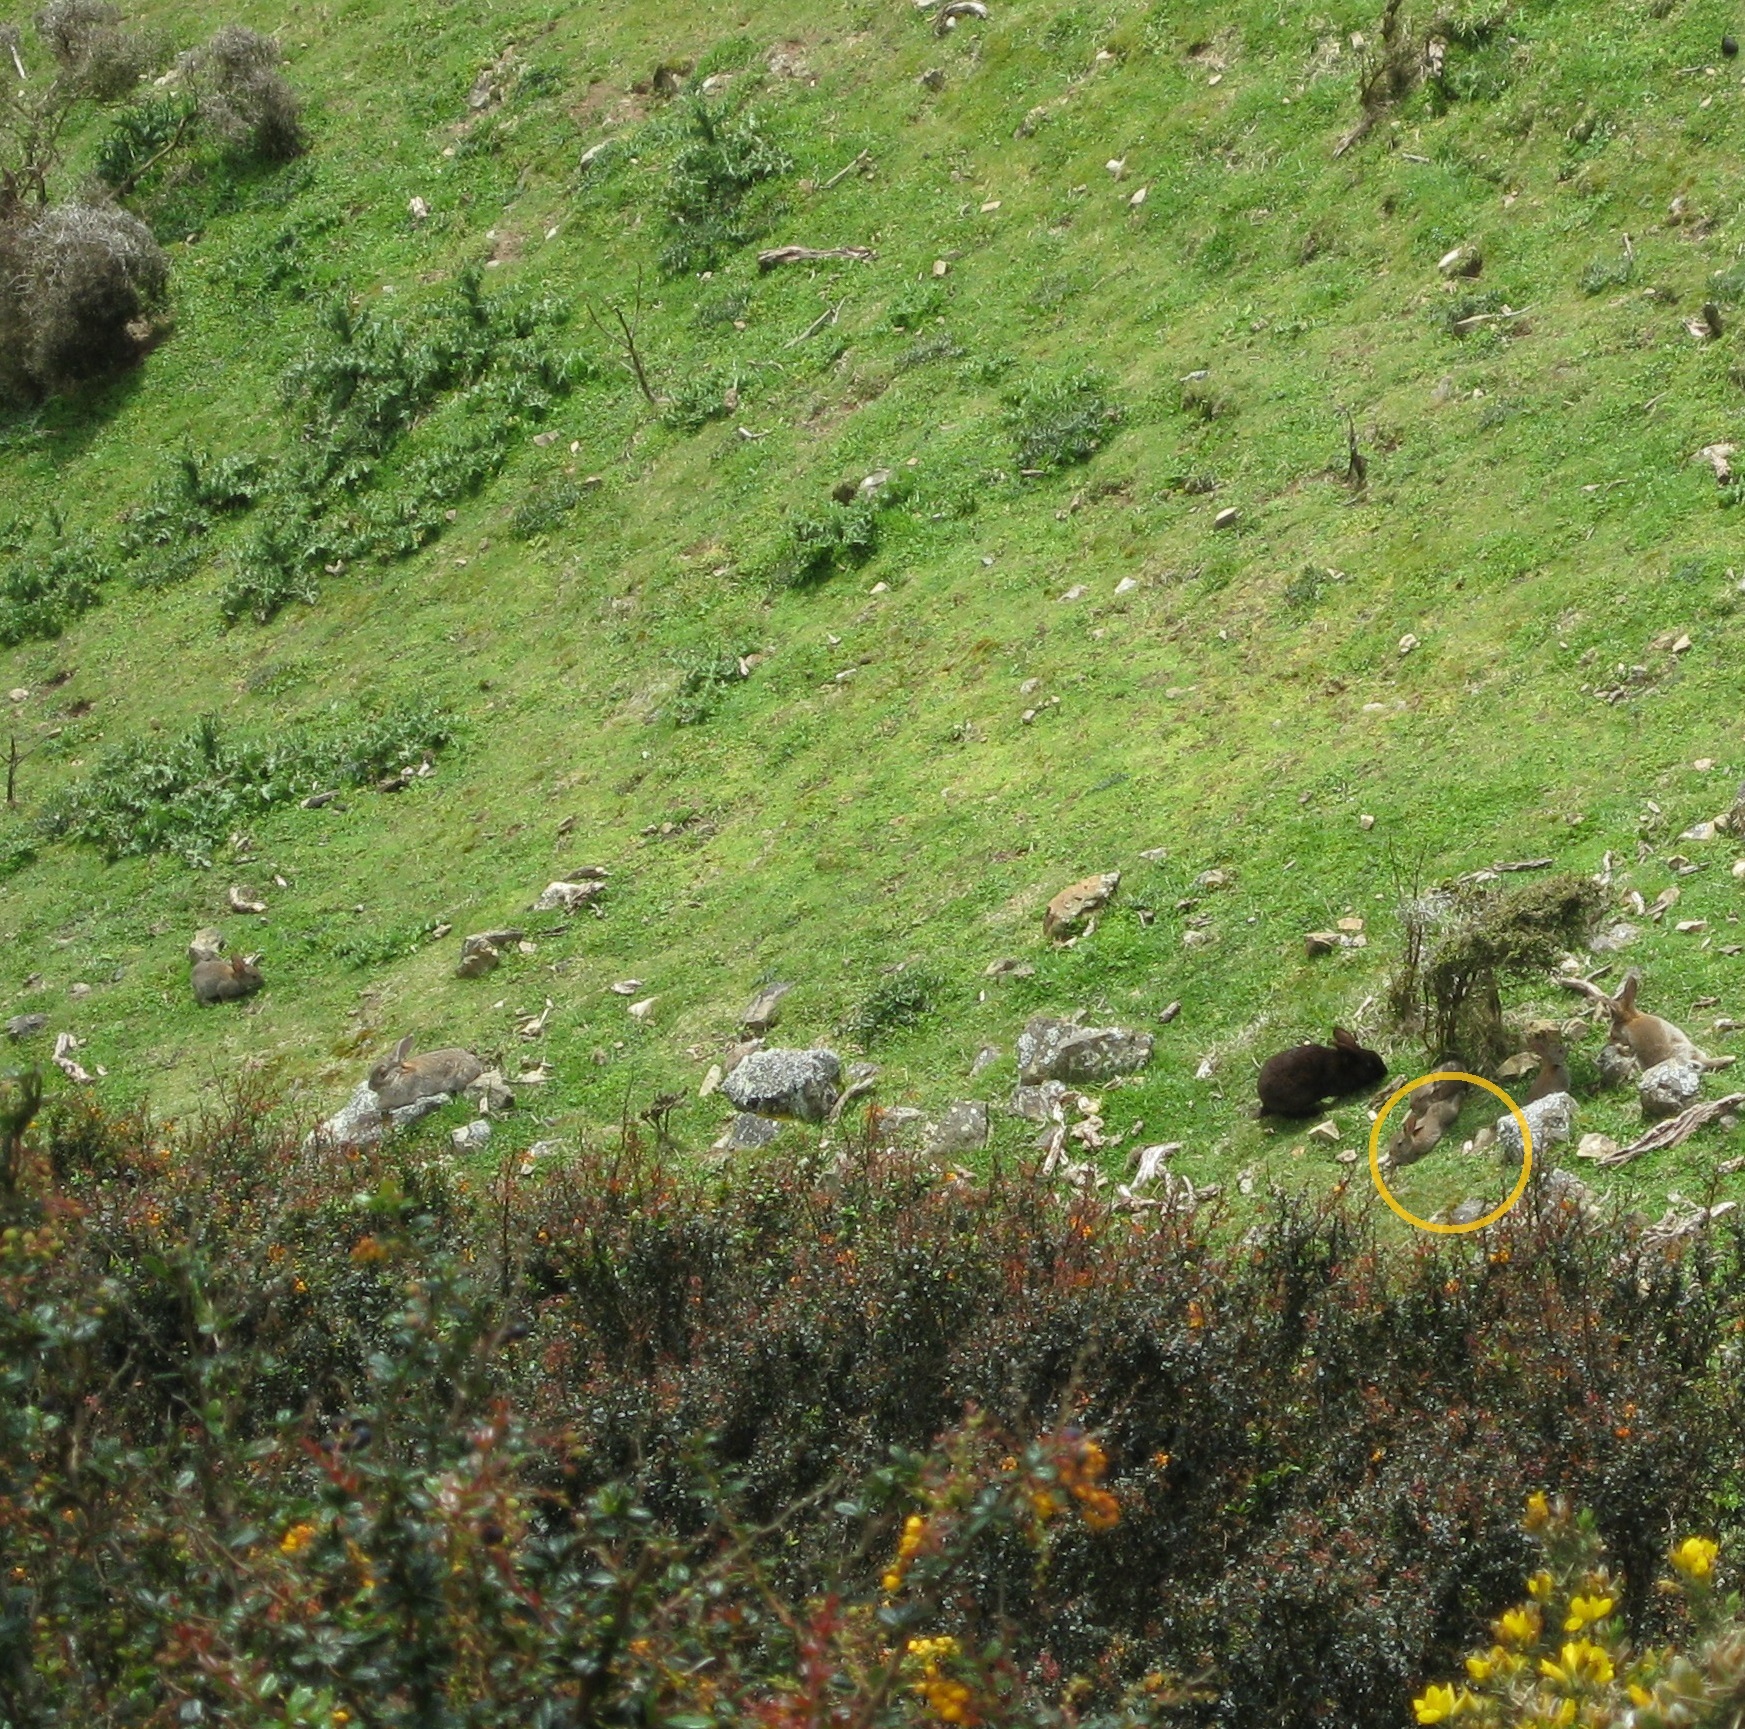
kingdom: Animalia
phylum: Chordata
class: Mammalia
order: Lagomorpha
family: Leporidae
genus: Oryctolagus
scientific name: Oryctolagus cuniculus
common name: European rabbit
